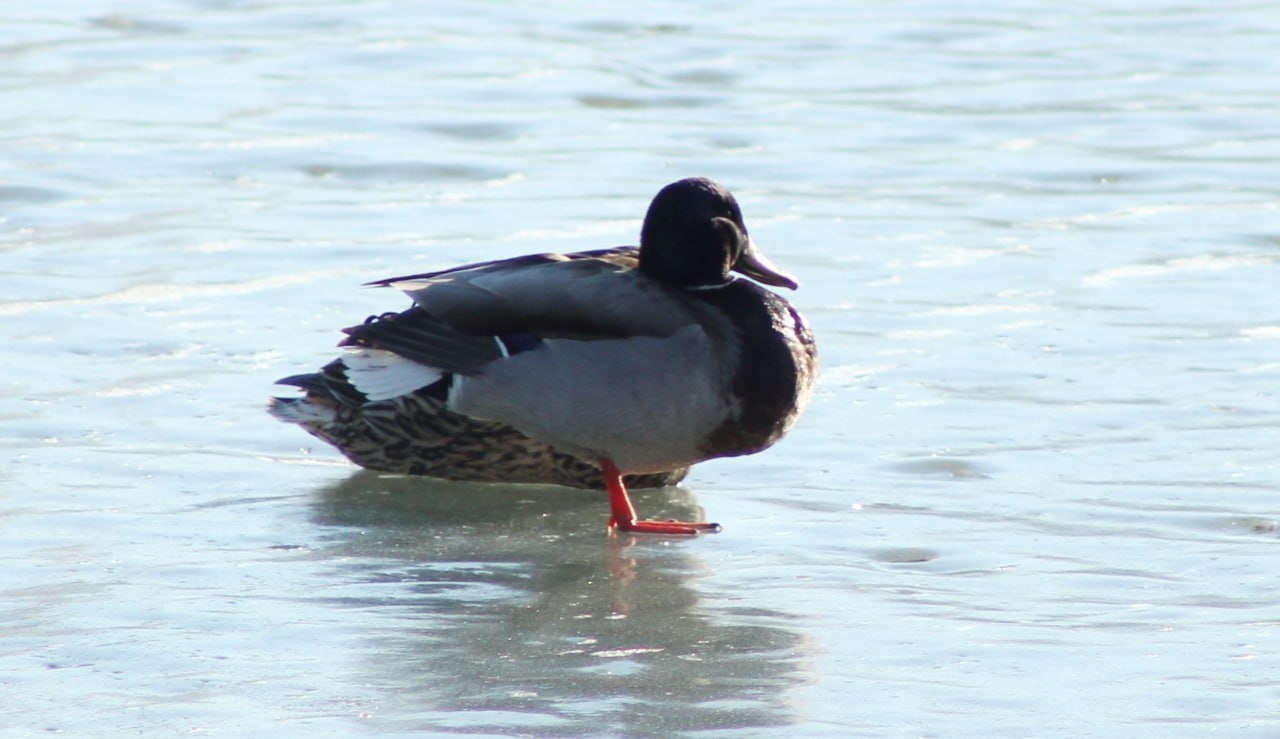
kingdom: Animalia
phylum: Chordata
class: Aves
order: Anseriformes
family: Anatidae
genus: Anas
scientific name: Anas platyrhynchos
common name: Mallard
